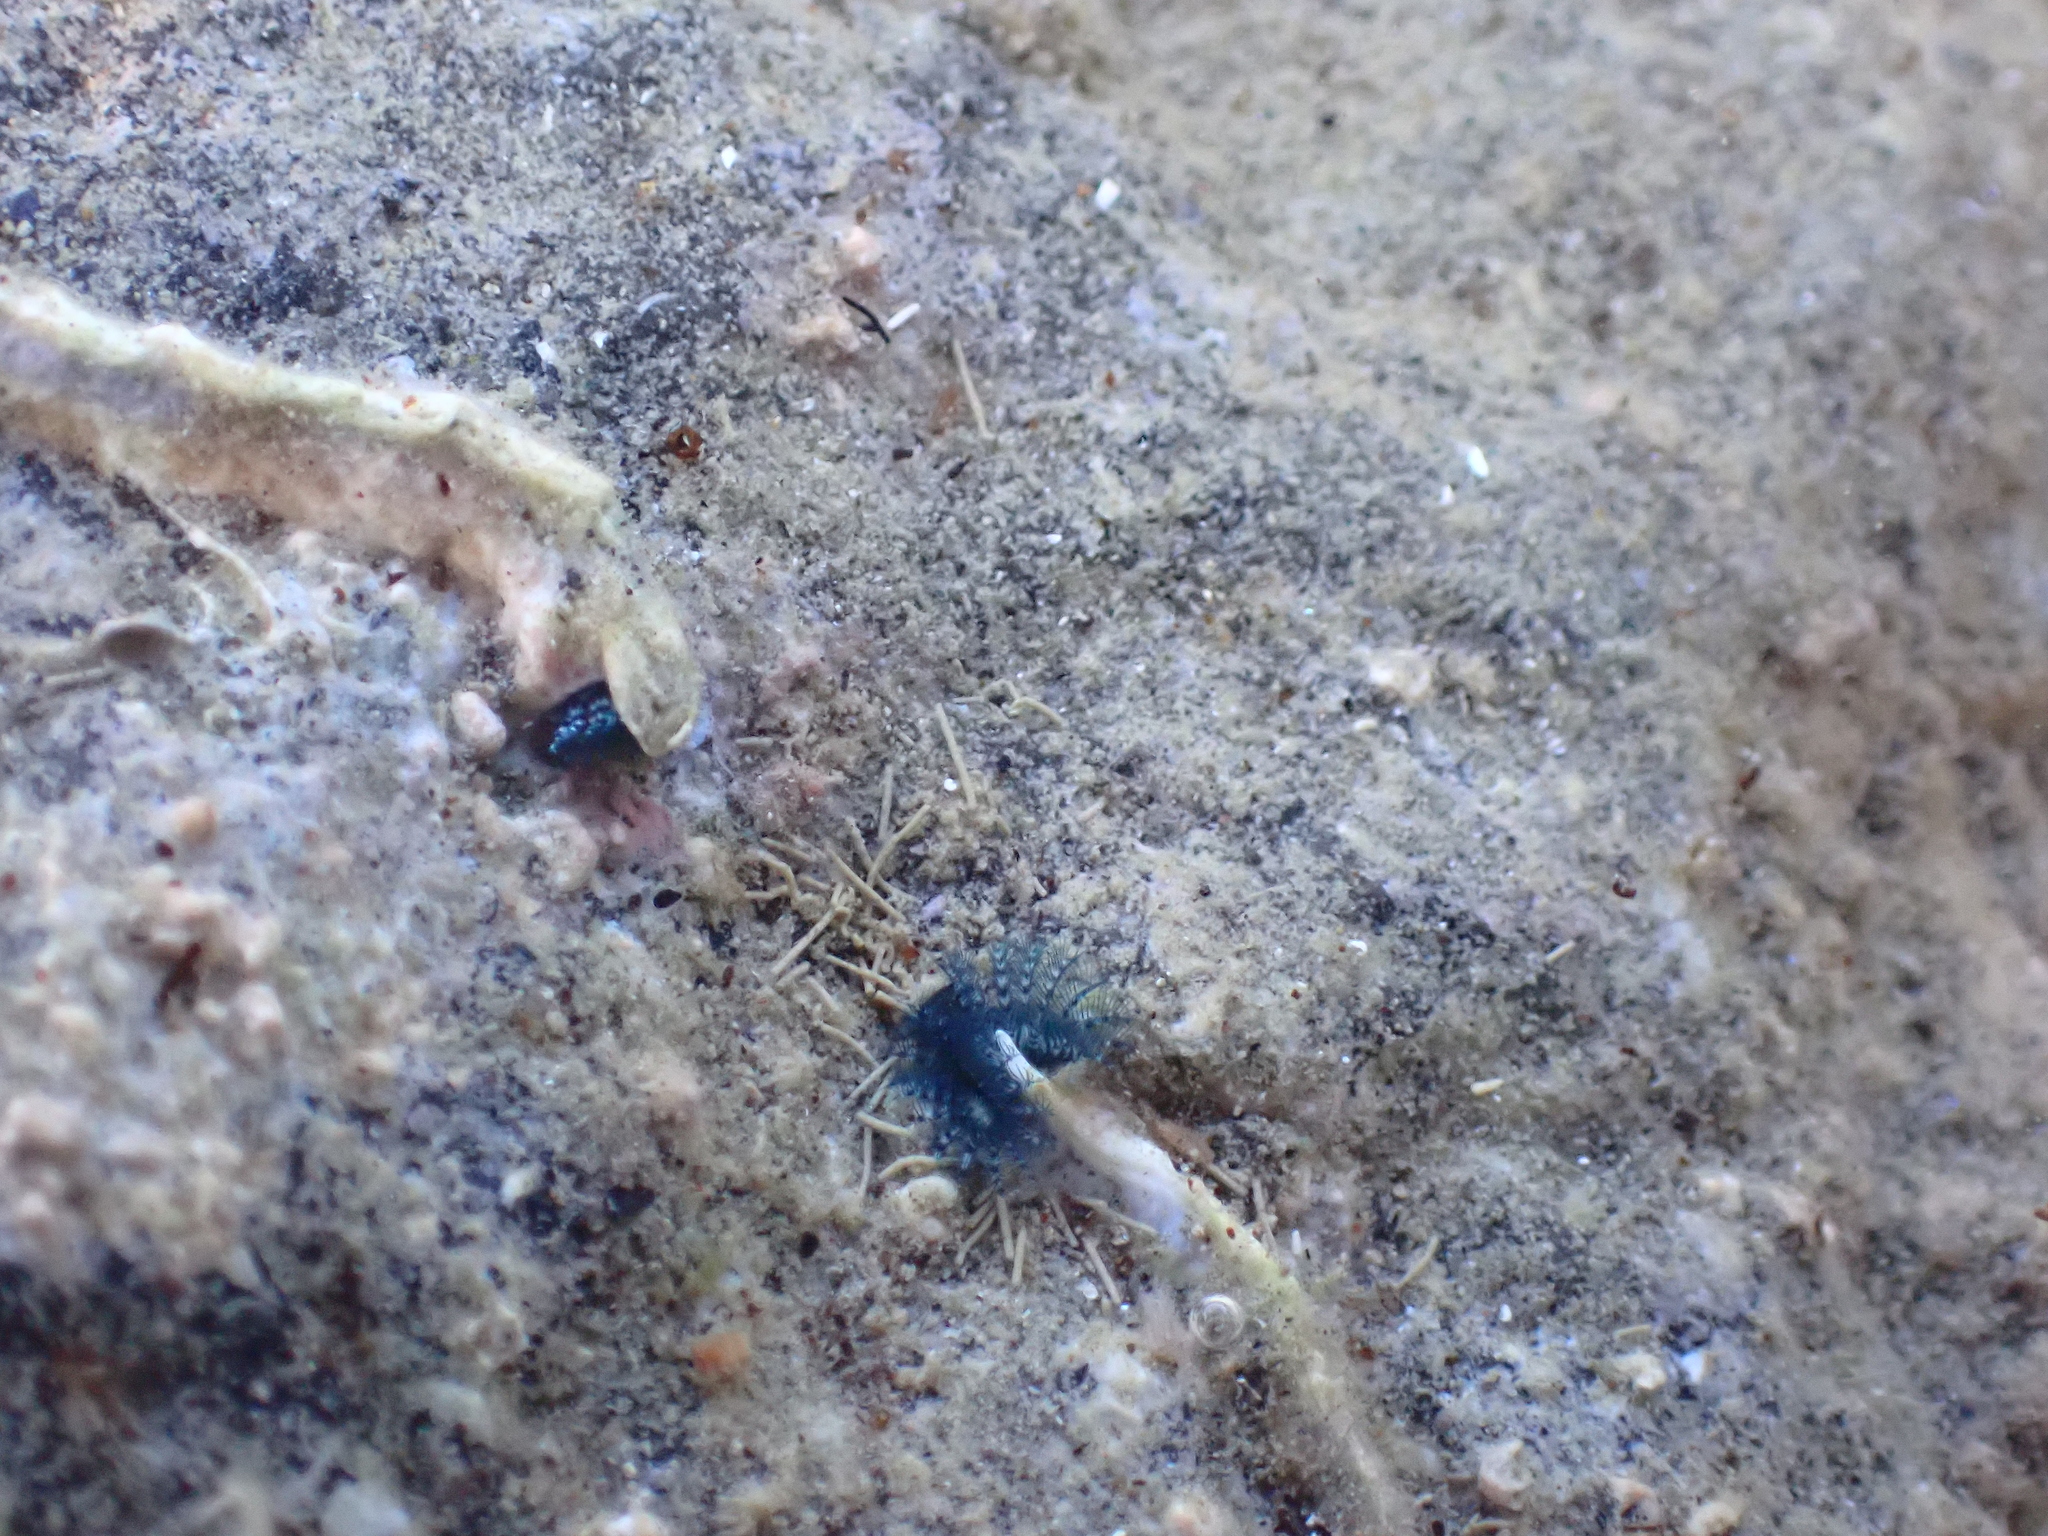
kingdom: Animalia
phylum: Annelida
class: Polychaeta
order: Sabellida
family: Serpulidae
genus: Spirobranchus
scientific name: Spirobranchus cariniferus
